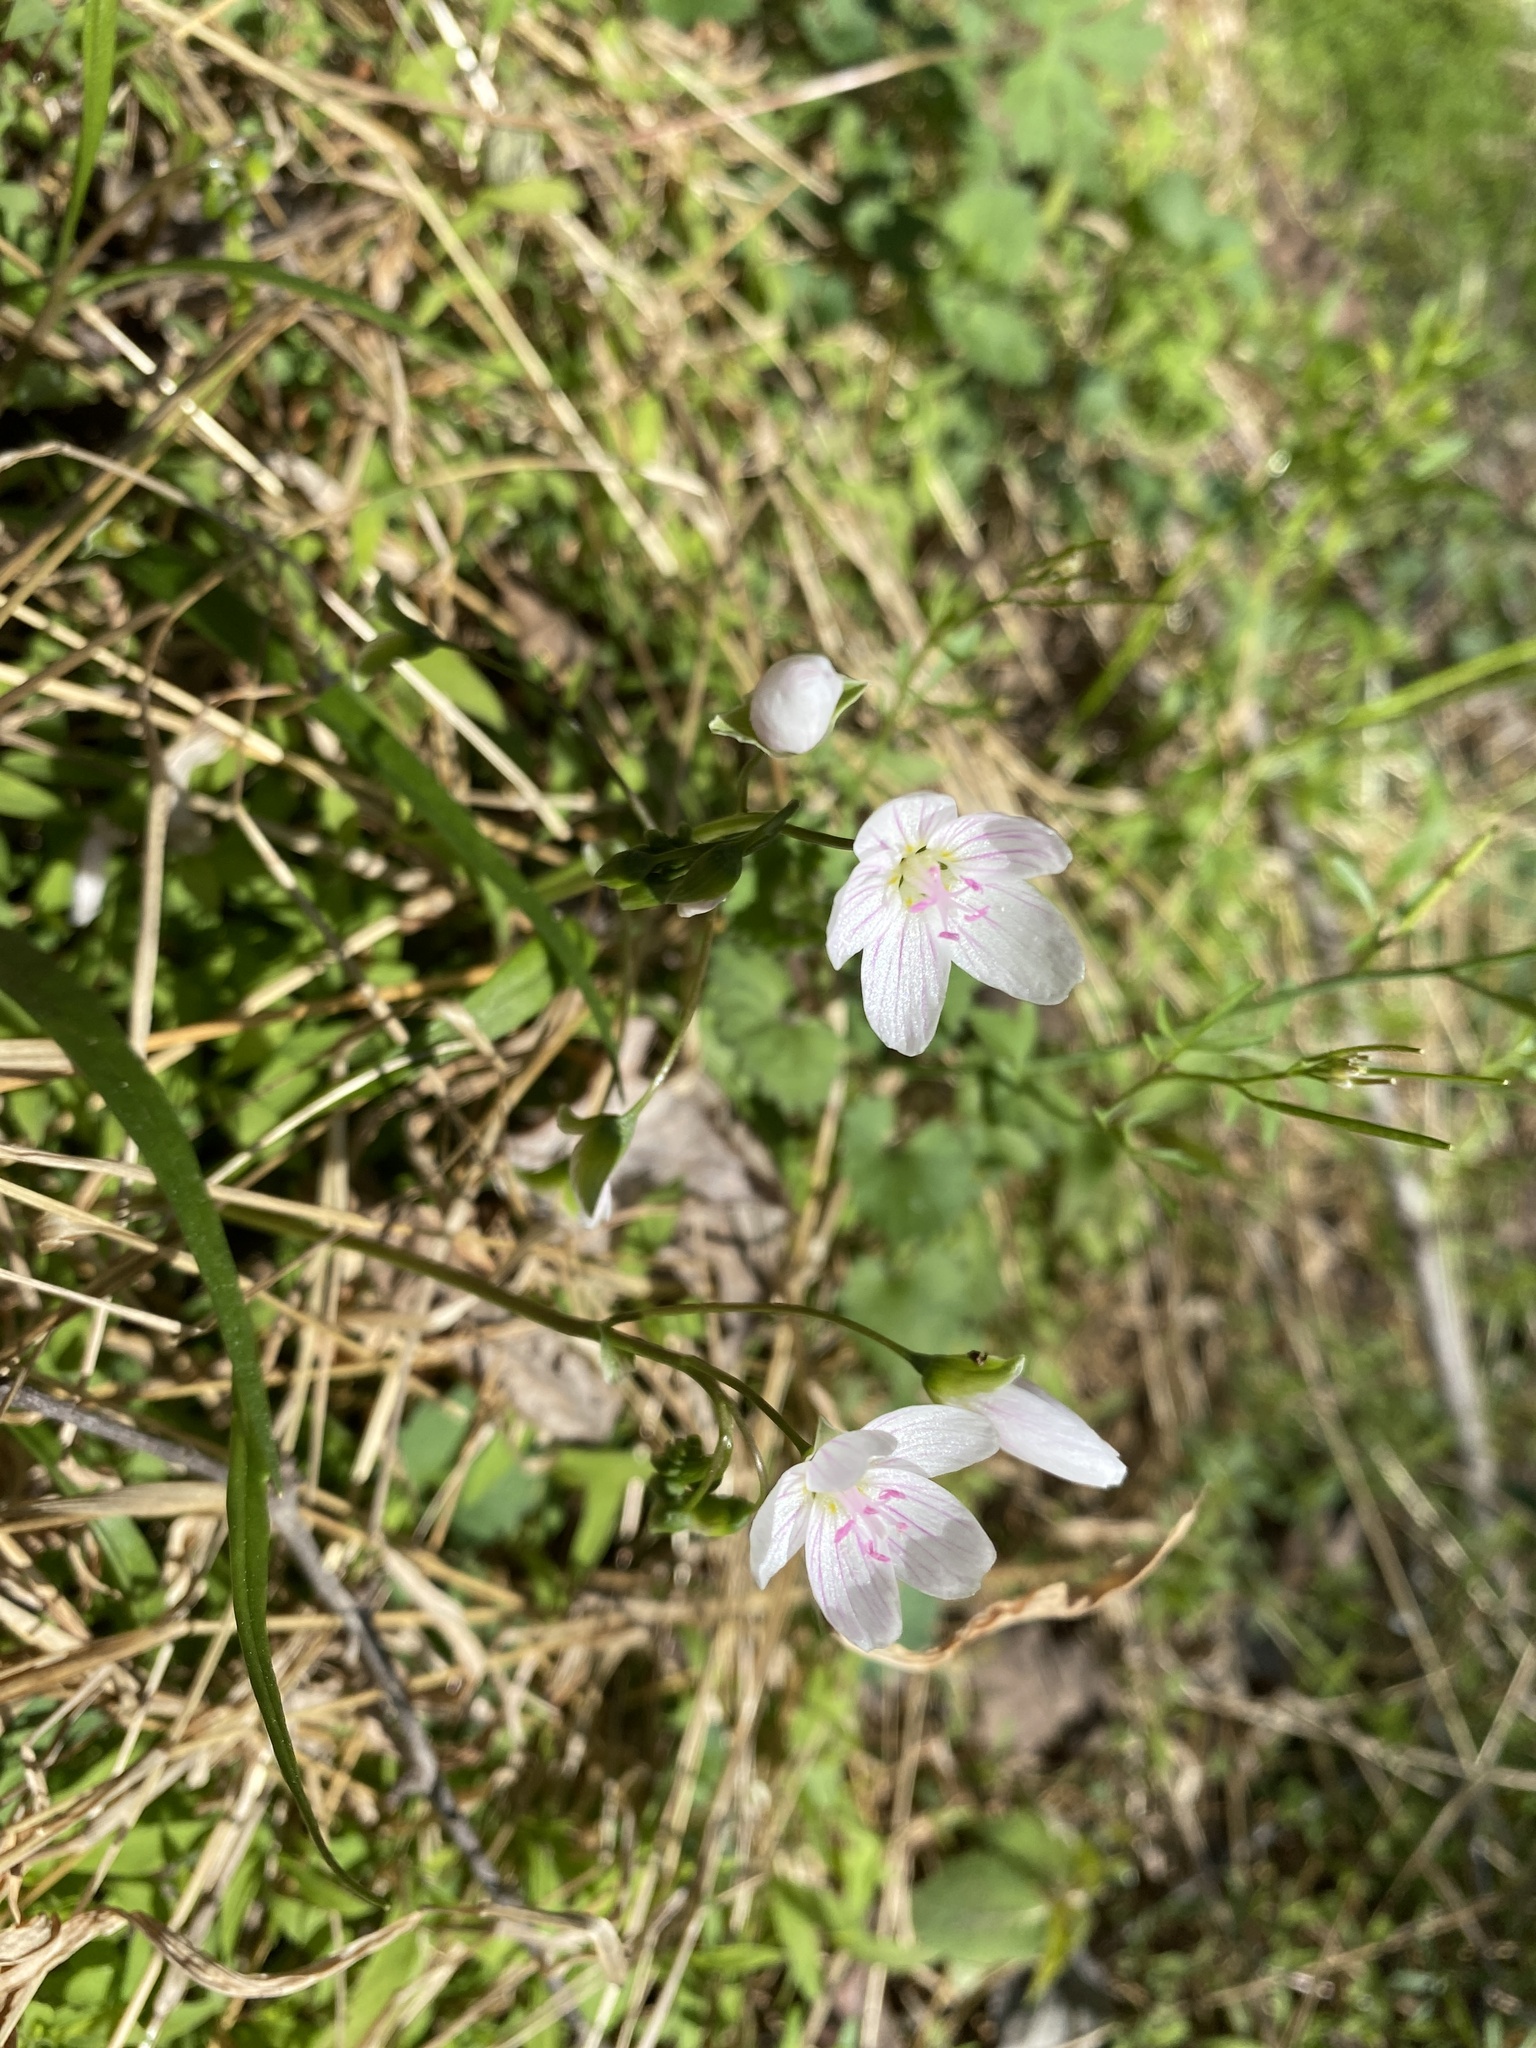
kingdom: Plantae
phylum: Tracheophyta
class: Magnoliopsida
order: Caryophyllales
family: Montiaceae
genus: Claytonia
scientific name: Claytonia virginica
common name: Virginia springbeauty
